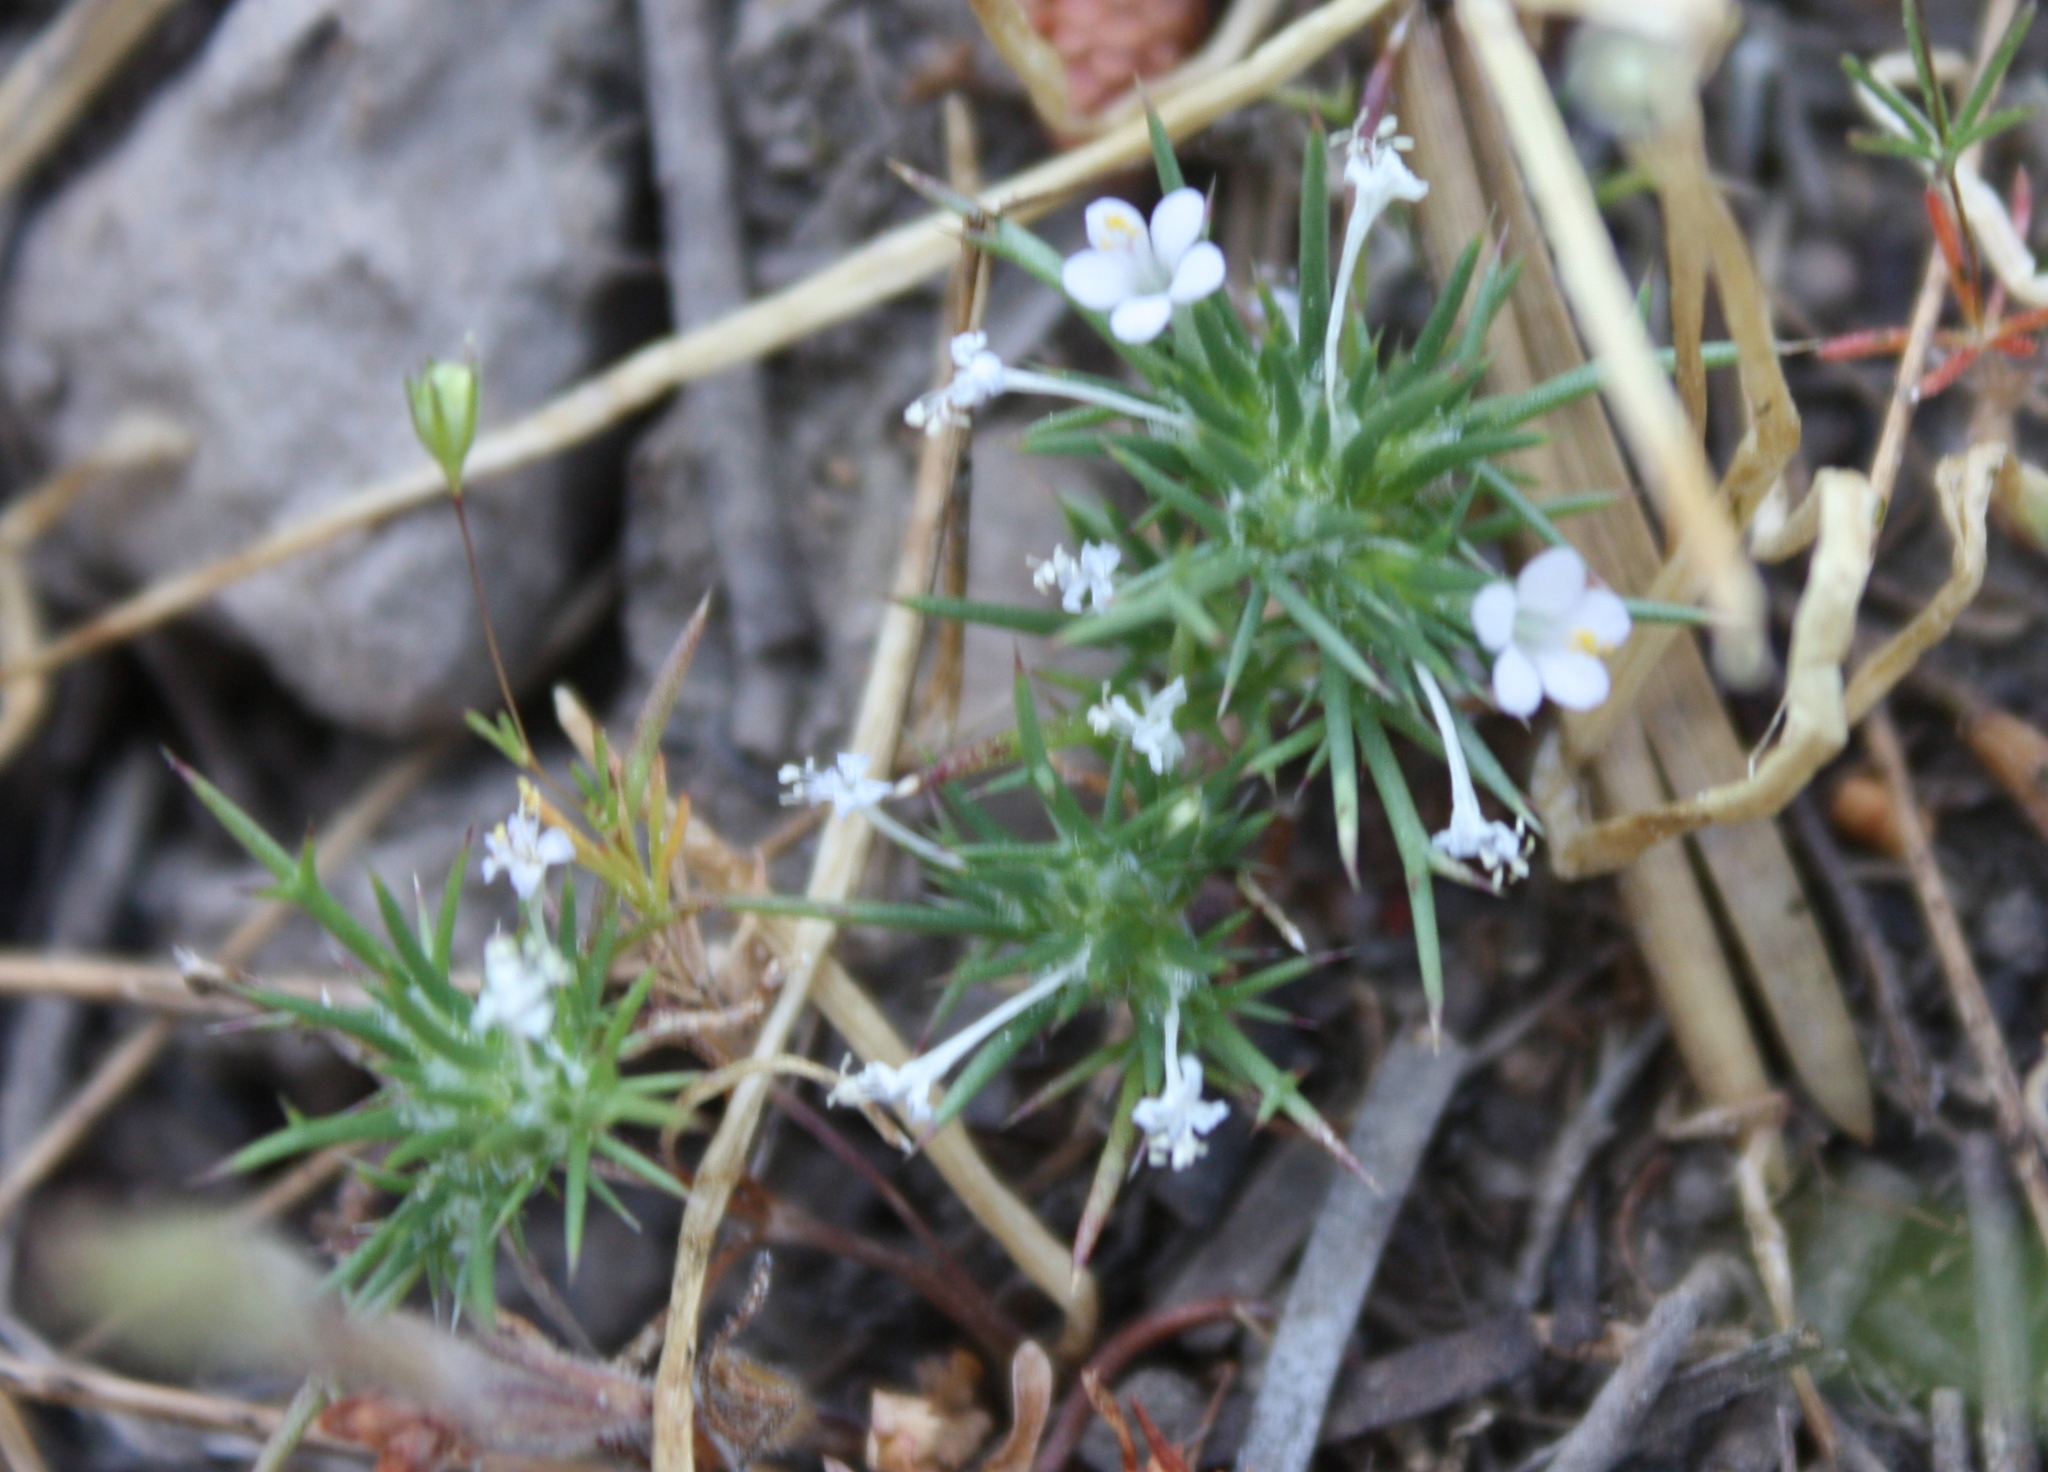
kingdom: Plantae
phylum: Tracheophyta
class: Magnoliopsida
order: Ericales
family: Polemoniaceae
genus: Navarretia
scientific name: Navarretia intertexta
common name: Needle-leaved navarretia
